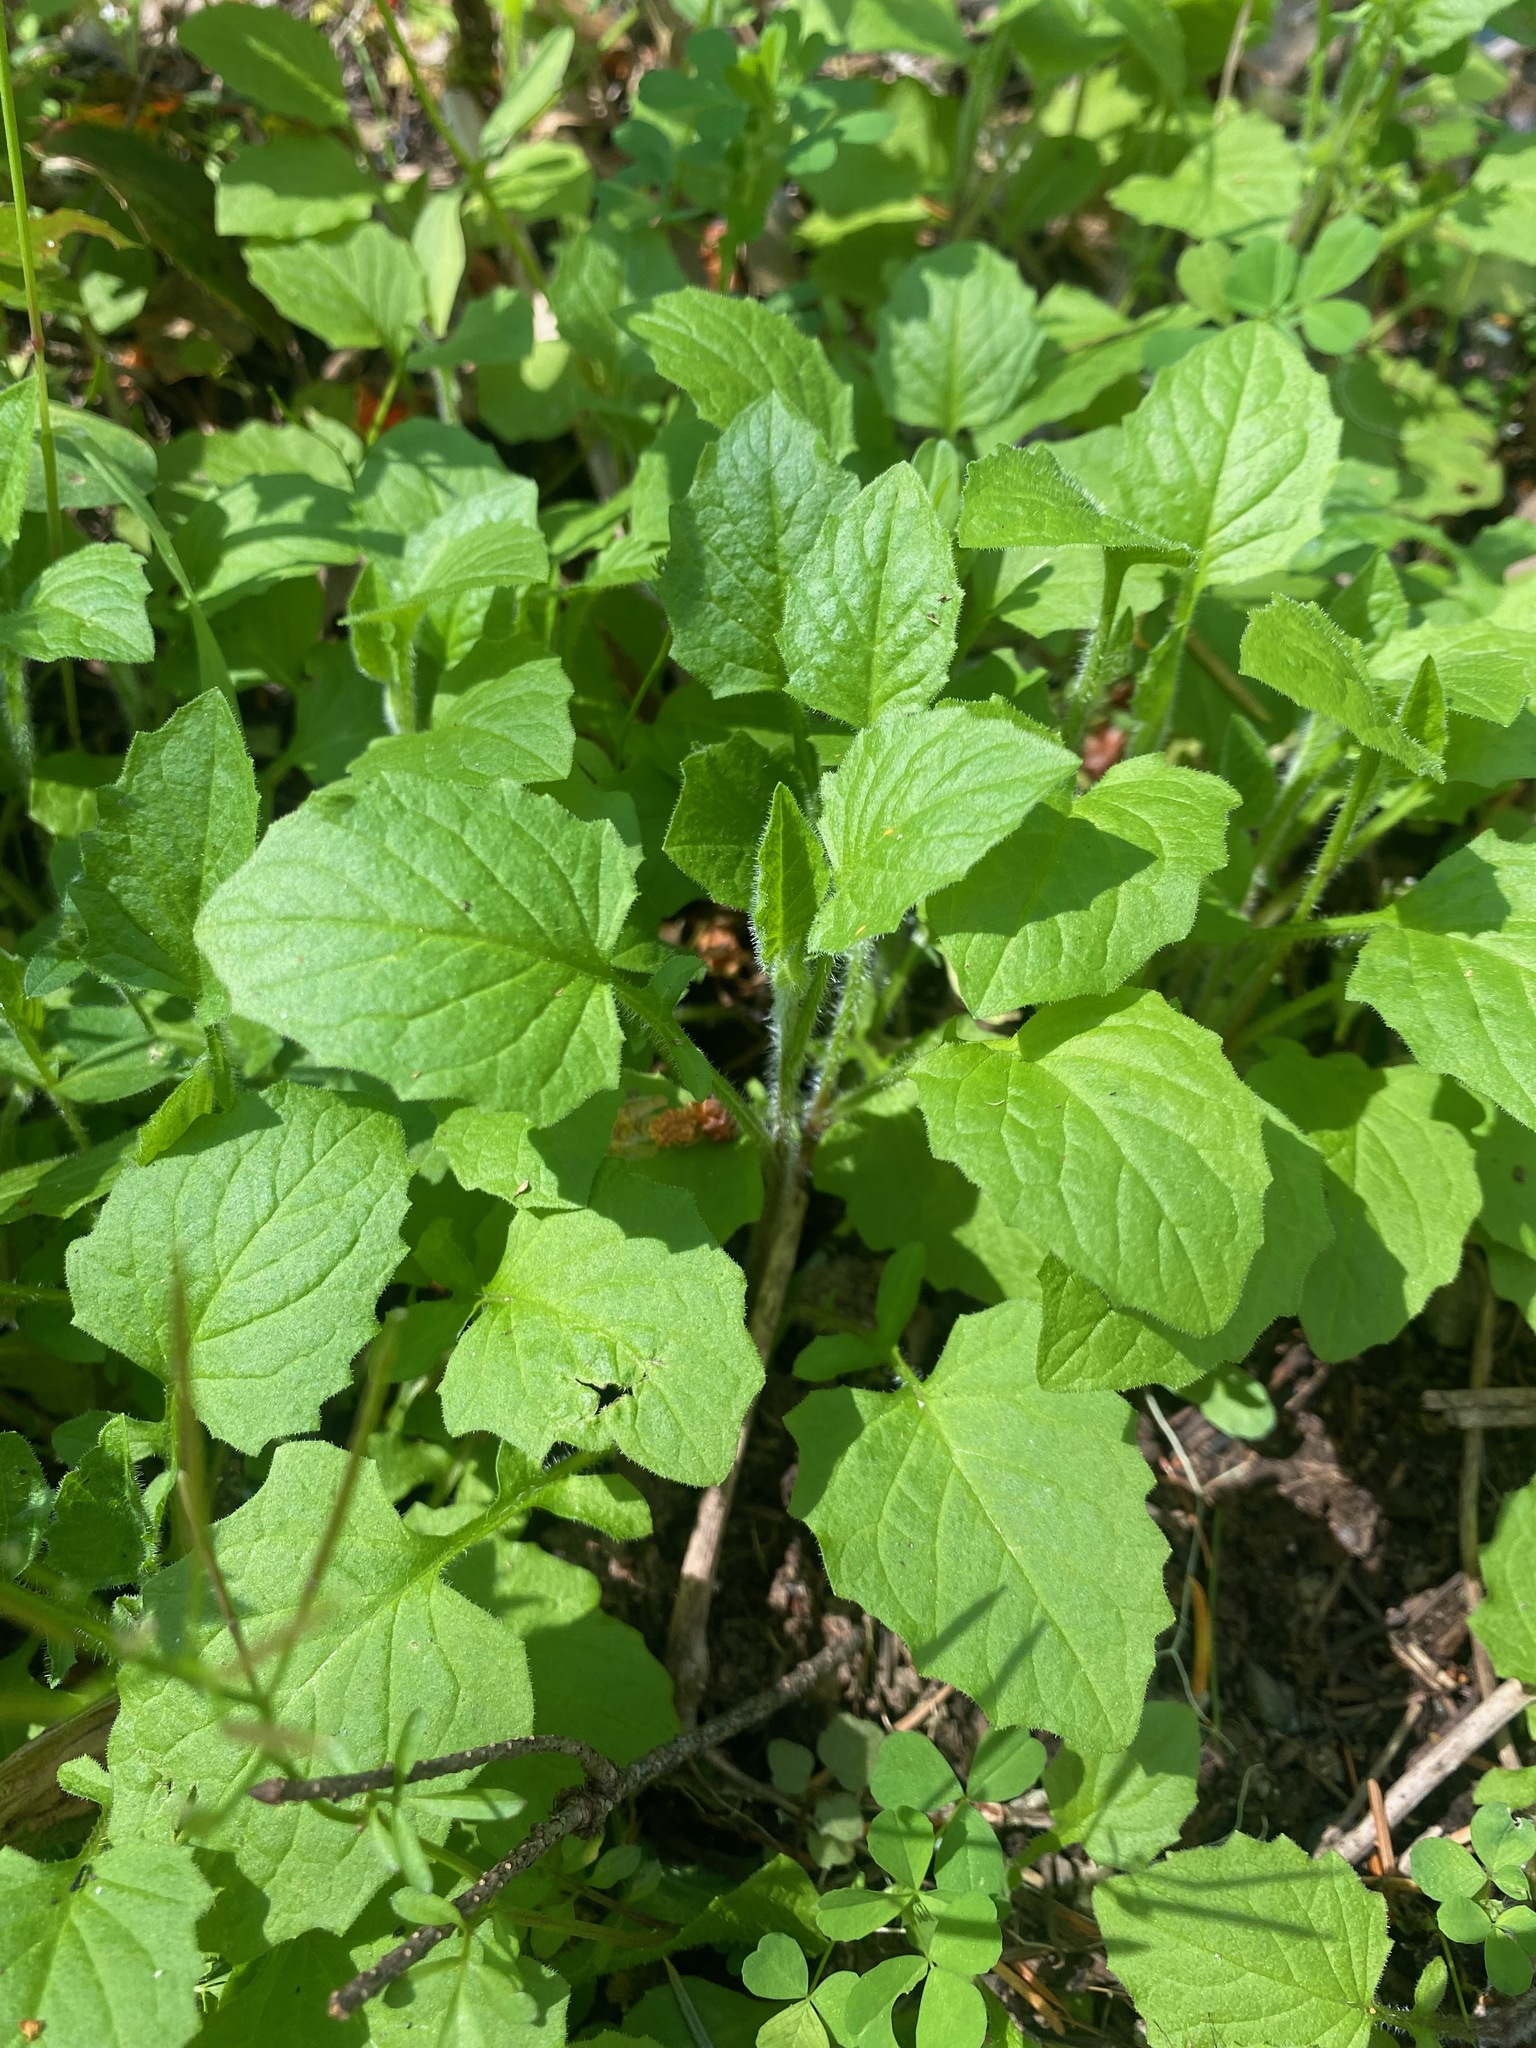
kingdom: Plantae
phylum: Tracheophyta
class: Magnoliopsida
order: Asterales
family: Asteraceae
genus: Lapsana
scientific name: Lapsana communis
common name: Nipplewort
